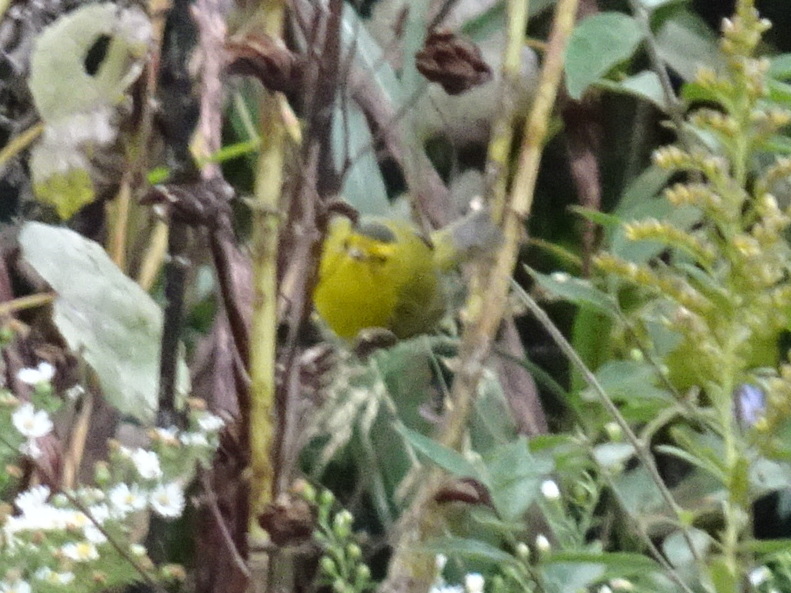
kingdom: Animalia
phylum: Chordata
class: Aves
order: Passeriformes
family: Parulidae
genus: Cardellina
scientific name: Cardellina pusilla
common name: Wilson's warbler
